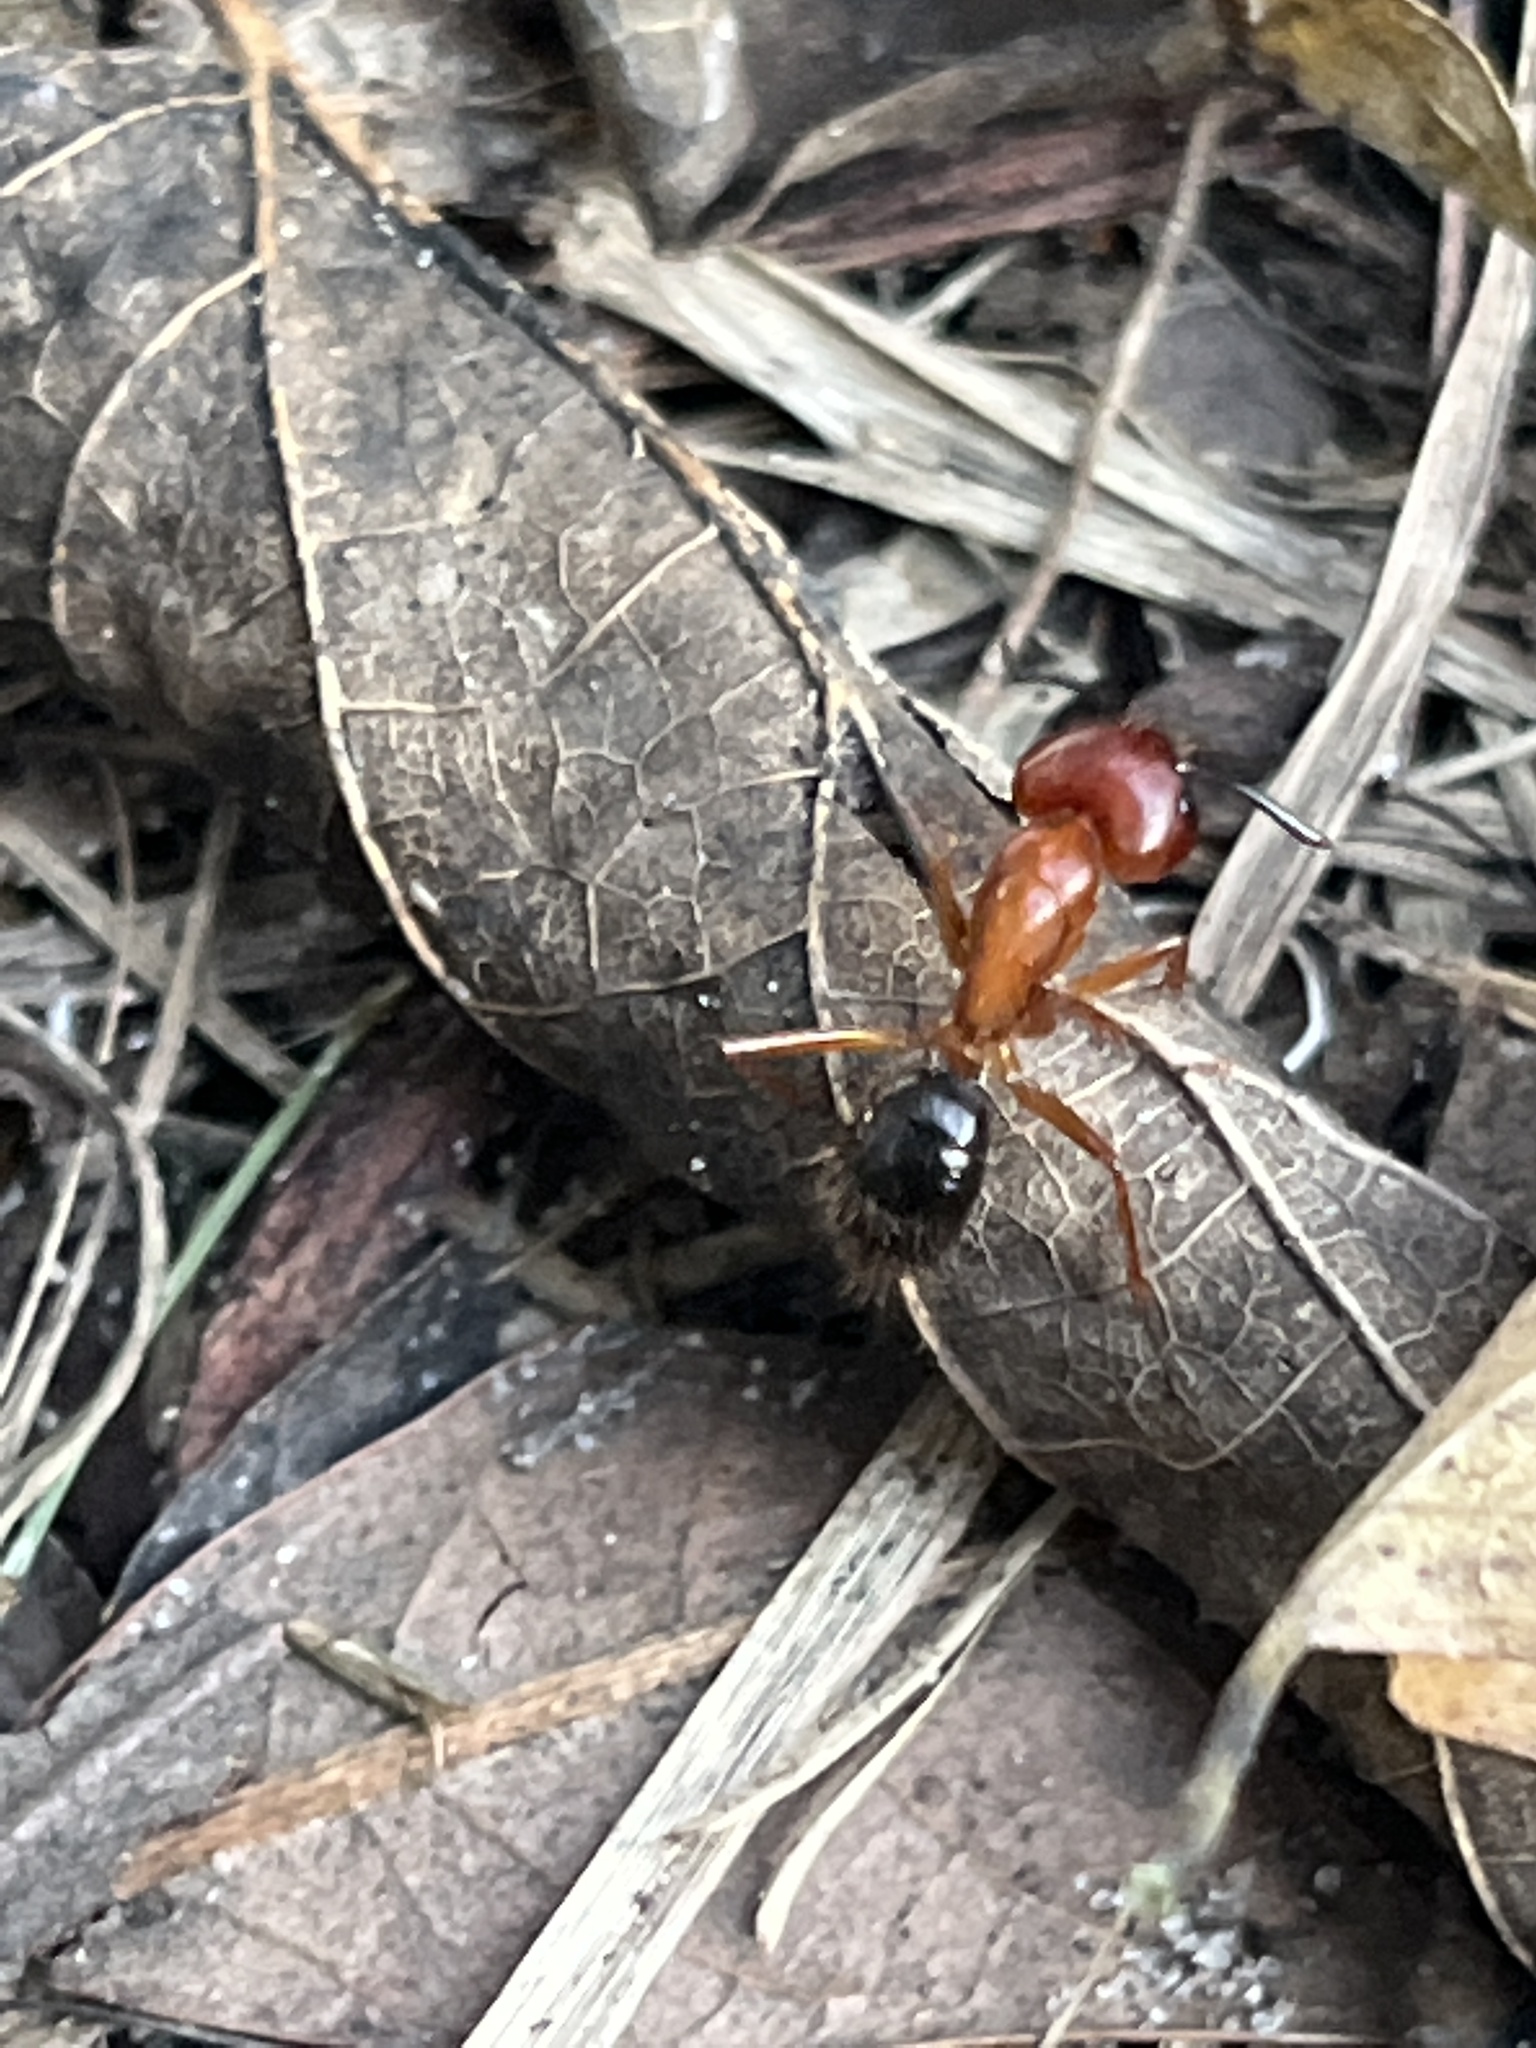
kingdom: Animalia
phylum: Arthropoda
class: Insecta
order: Hymenoptera
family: Formicidae
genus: Camponotus
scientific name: Camponotus floridanus
